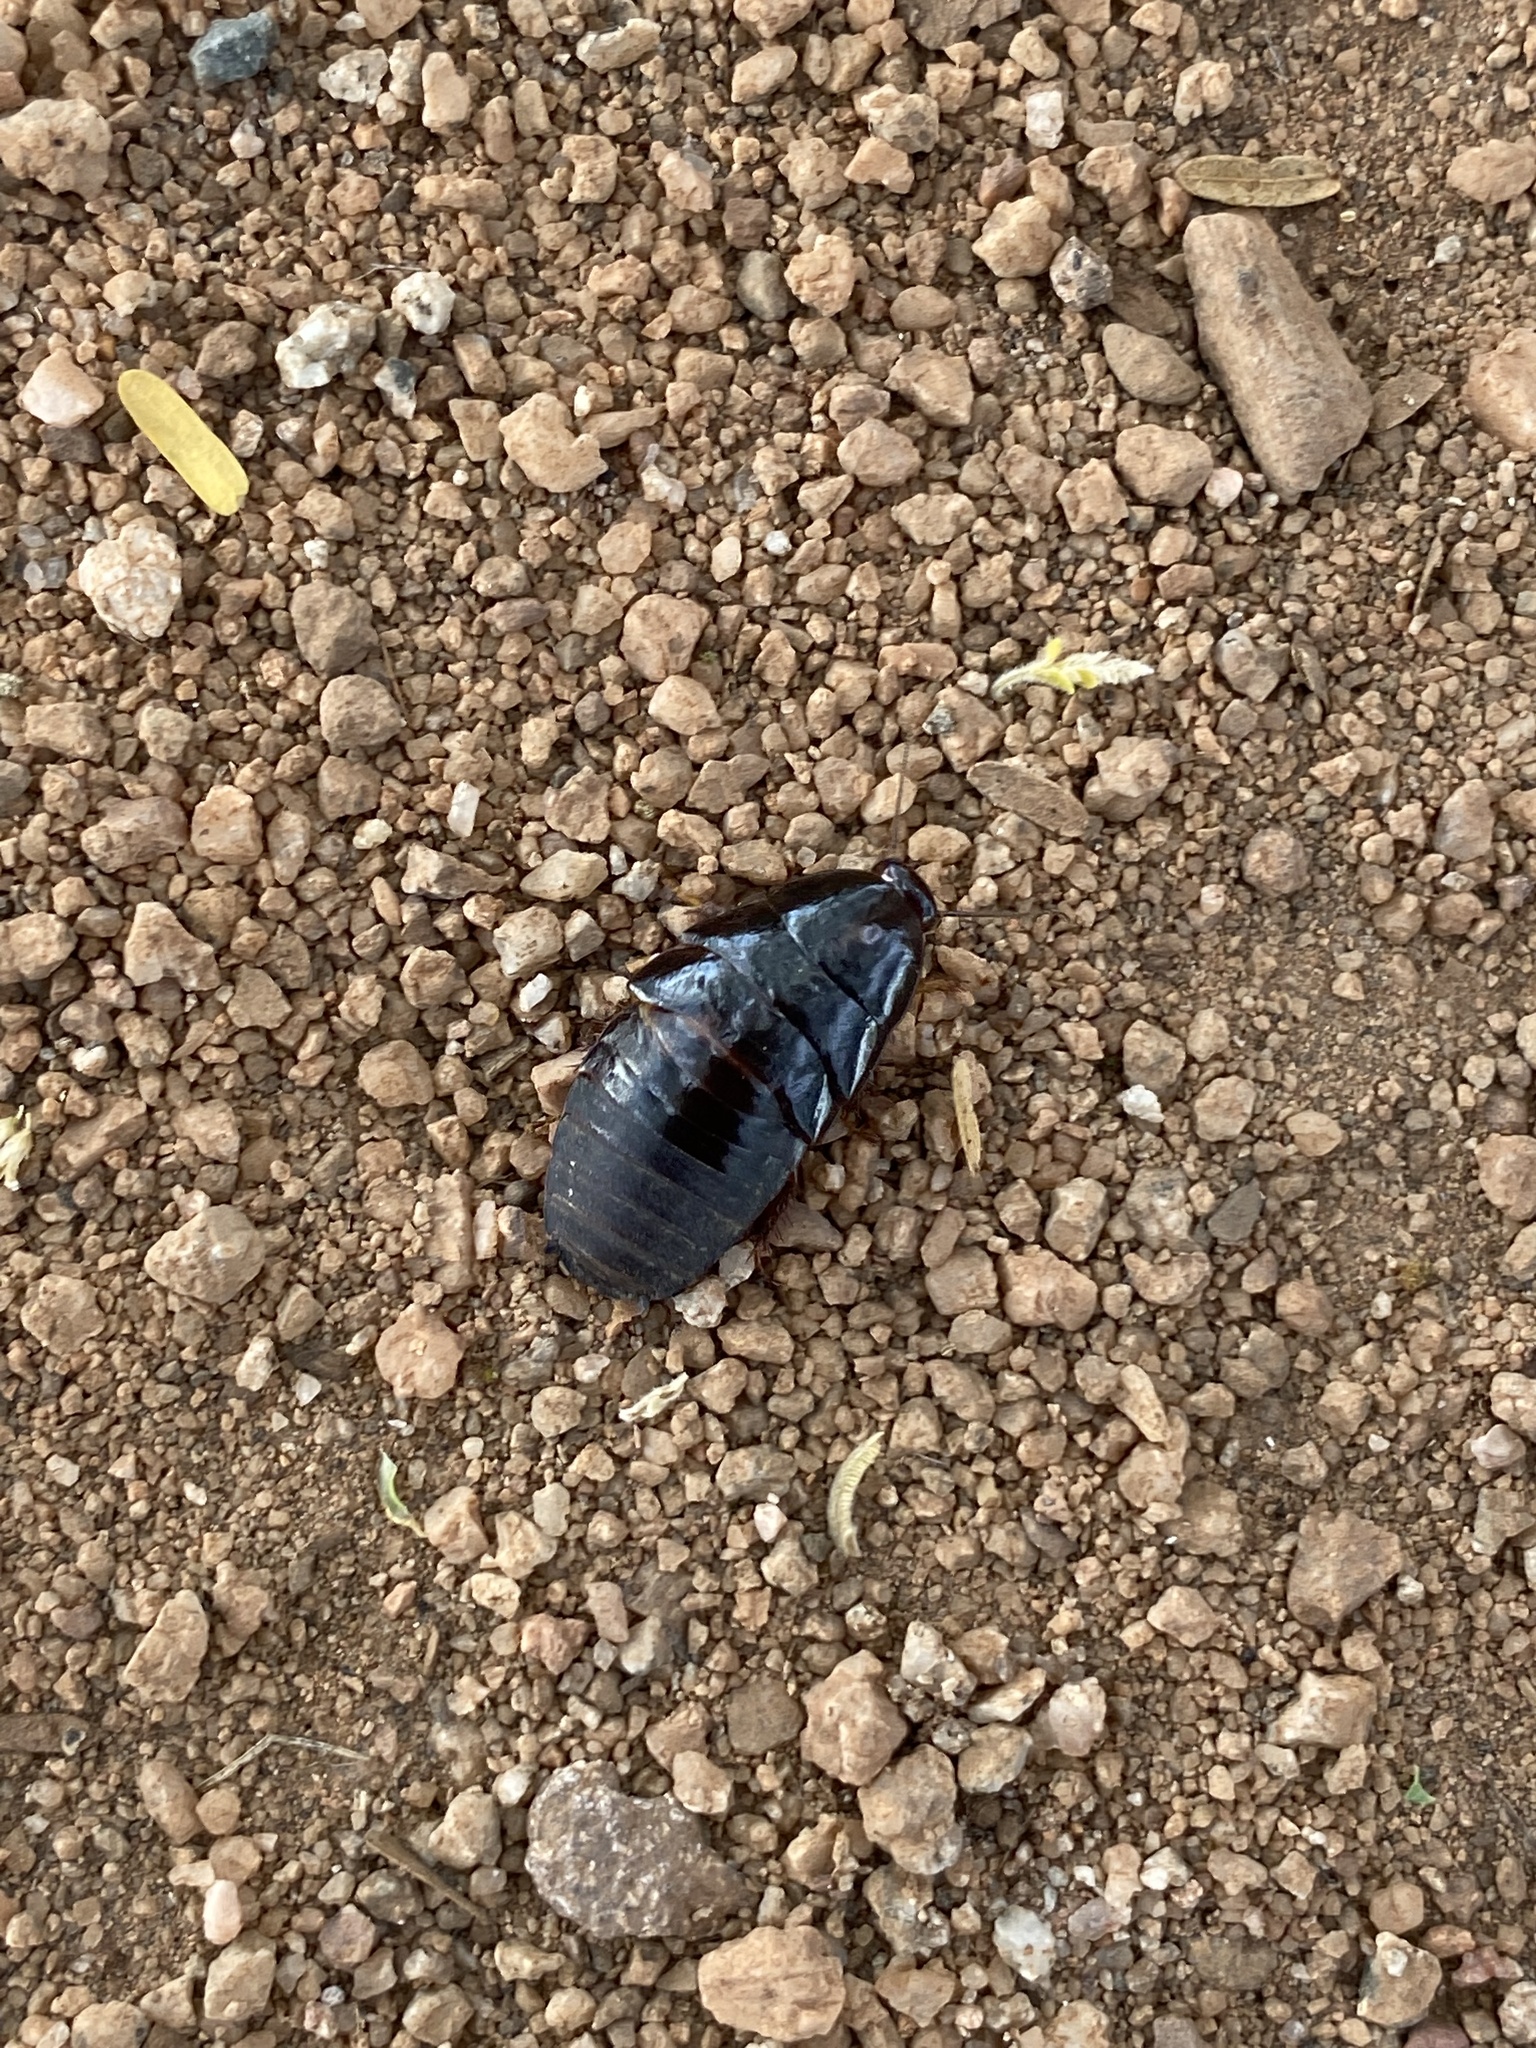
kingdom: Animalia
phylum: Arthropoda
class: Insecta
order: Blattodea
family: Blaberidae
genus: Pycnoscelus
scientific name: Pycnoscelus surinamensis
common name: Surinam cockroach
